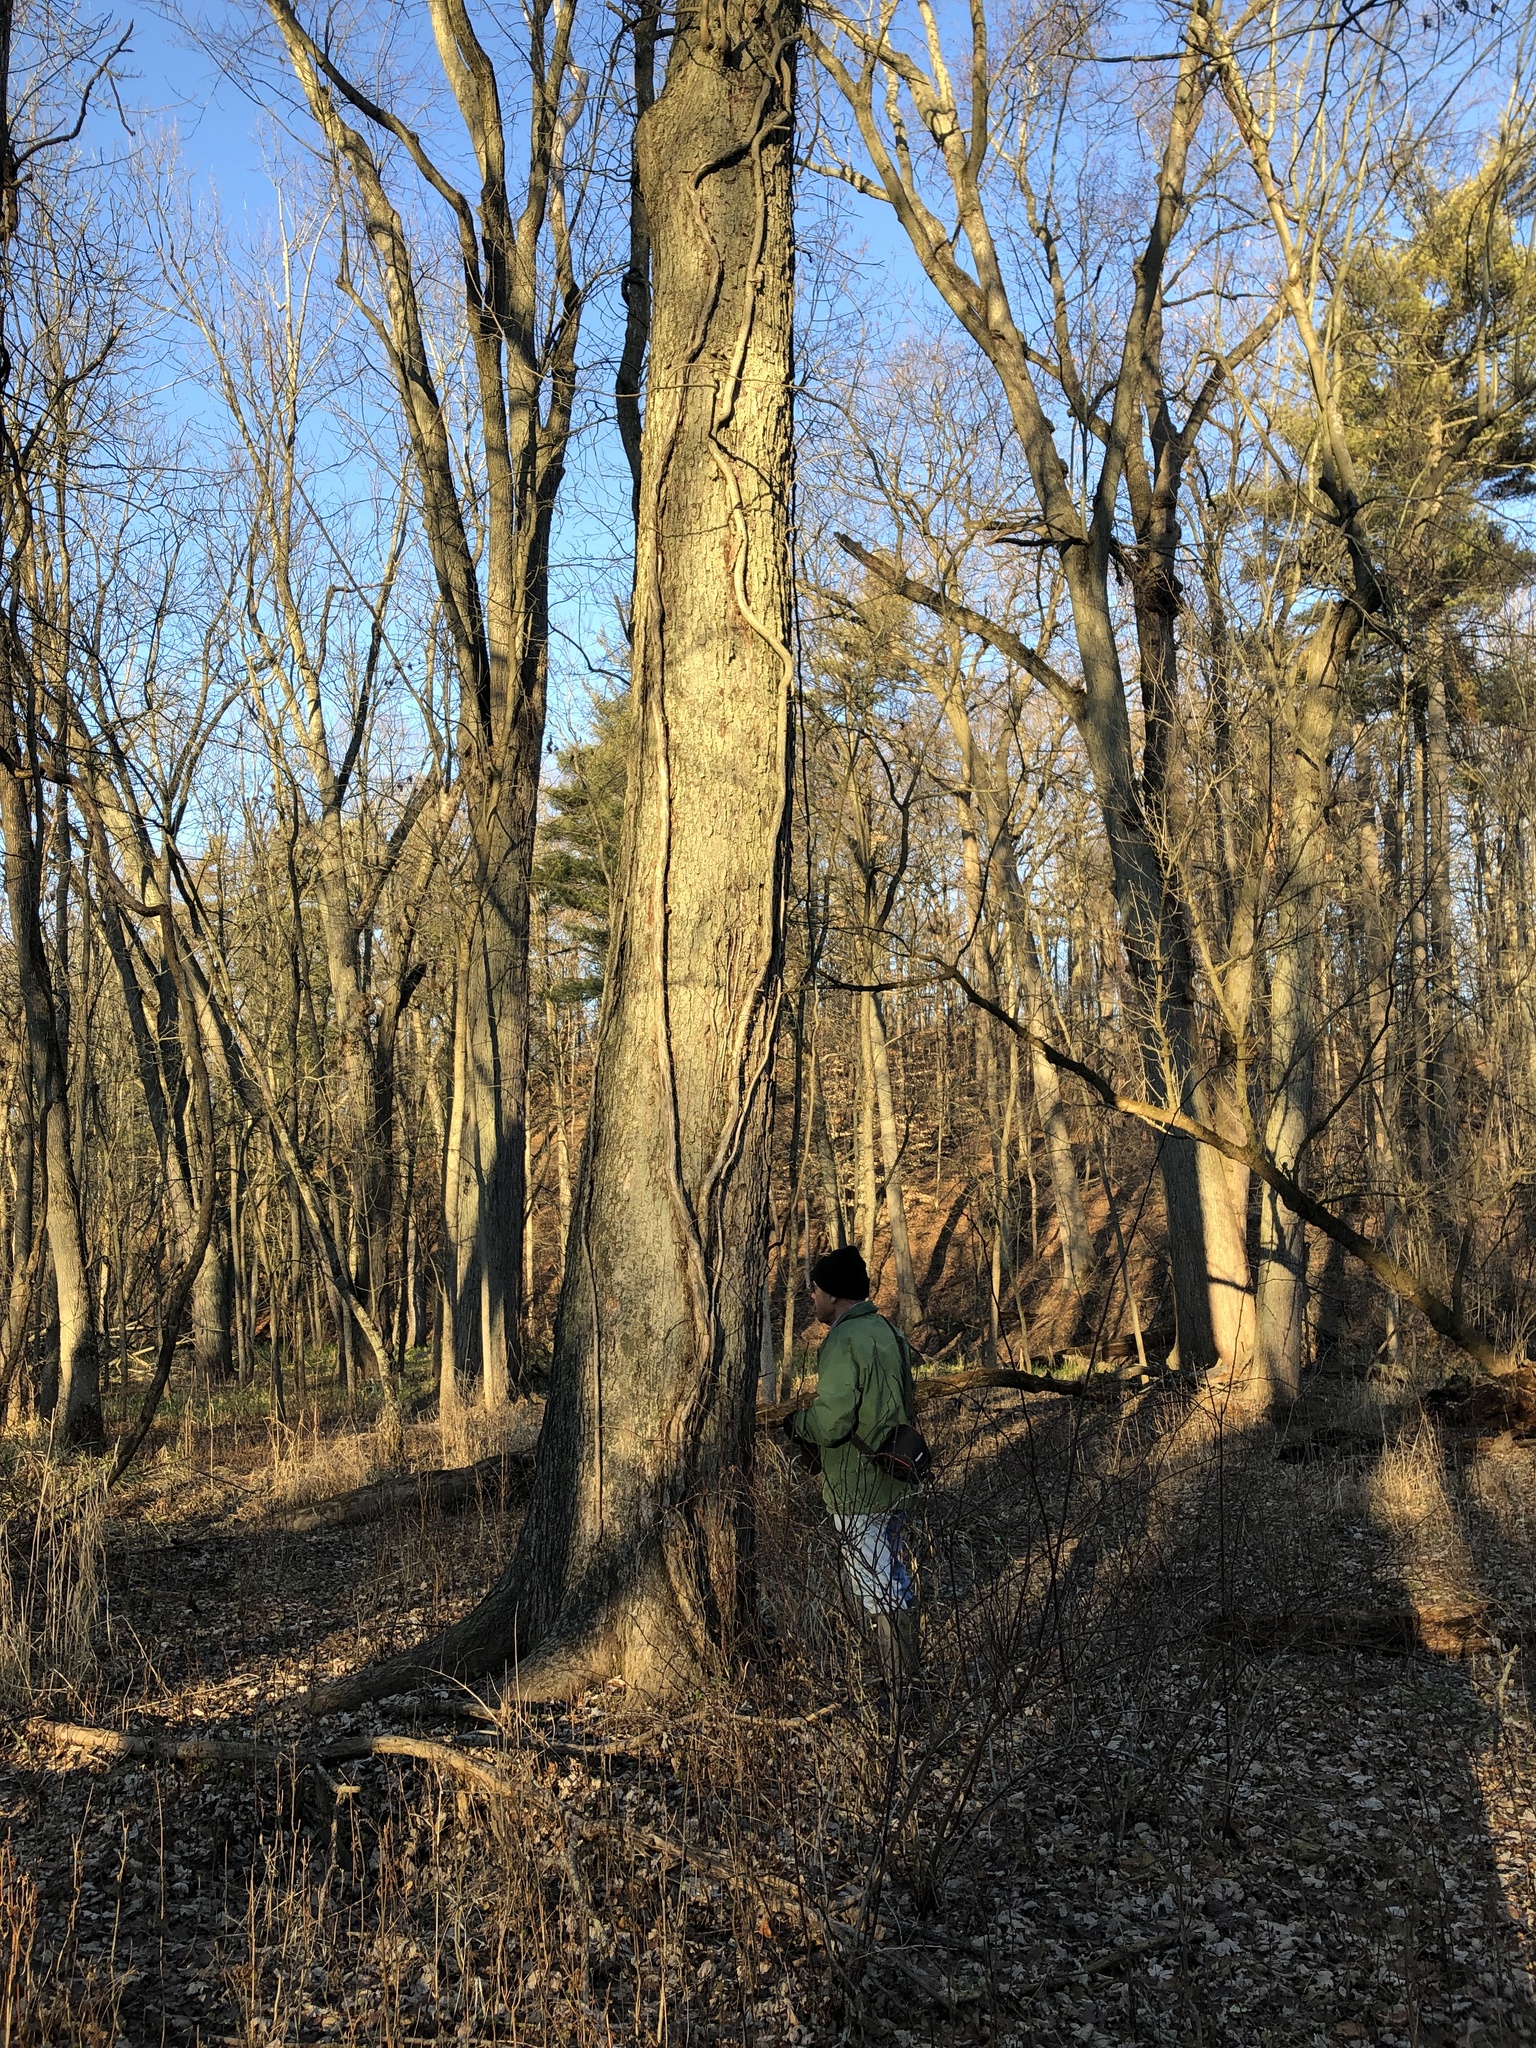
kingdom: Plantae
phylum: Tracheophyta
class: Magnoliopsida
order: Sapindales
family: Sapindaceae
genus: Acer
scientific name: Acer saccharinum
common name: Silver maple
